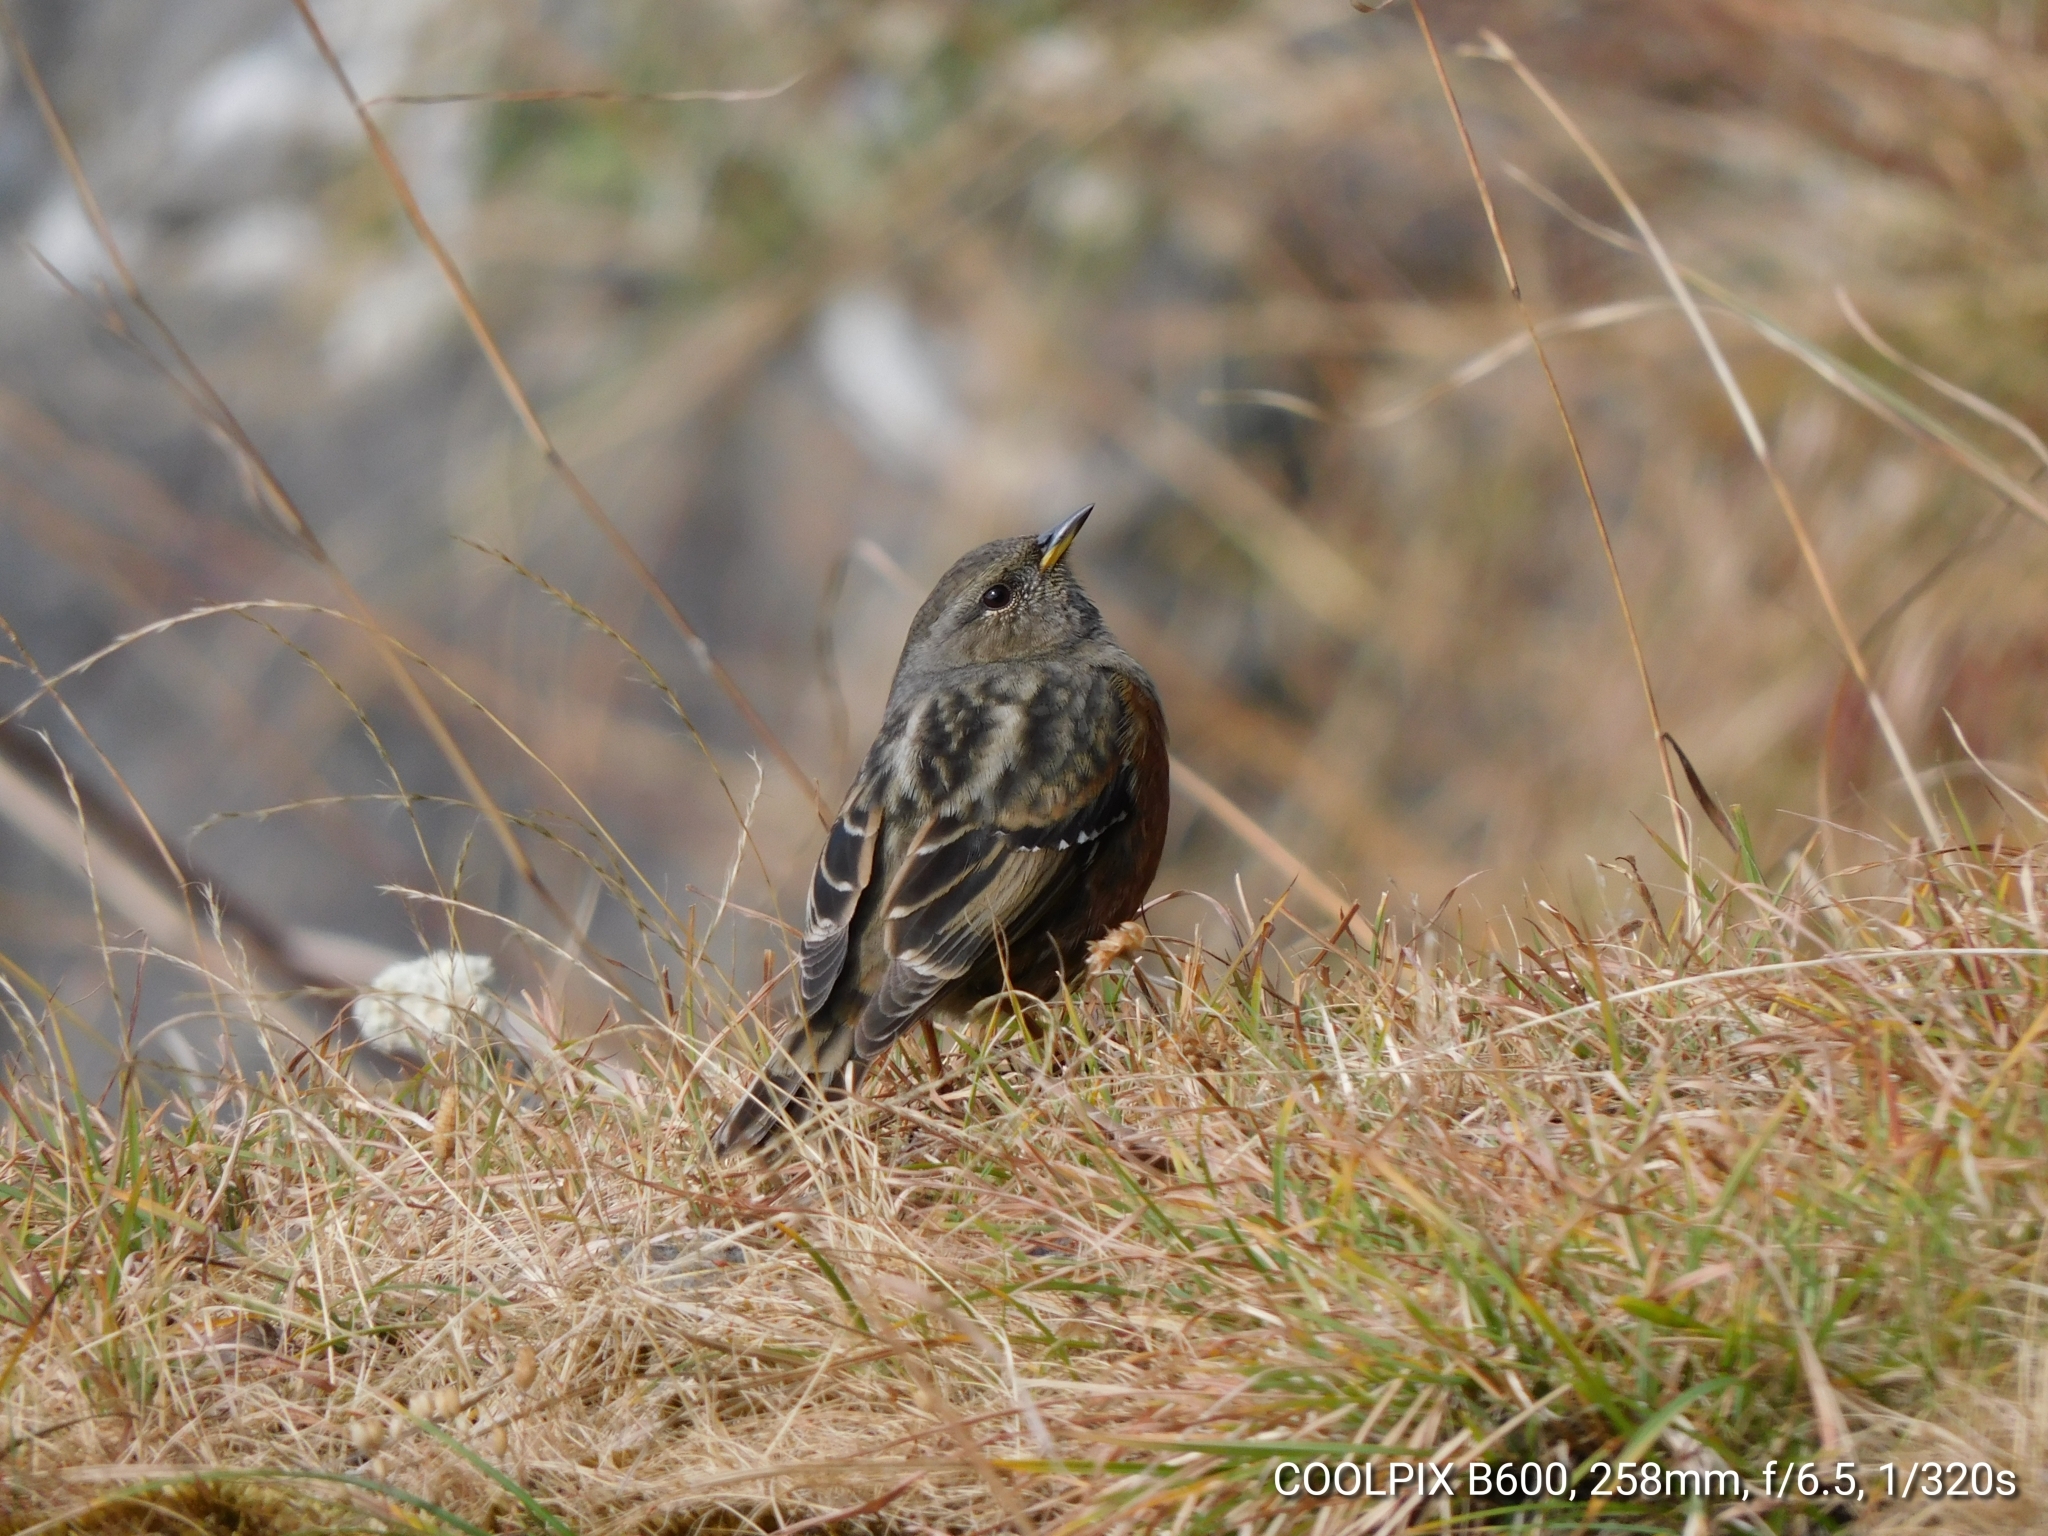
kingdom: Animalia
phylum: Chordata
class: Aves
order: Passeriformes
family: Prunellidae
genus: Prunella
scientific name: Prunella collaris
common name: Alpine accentor
